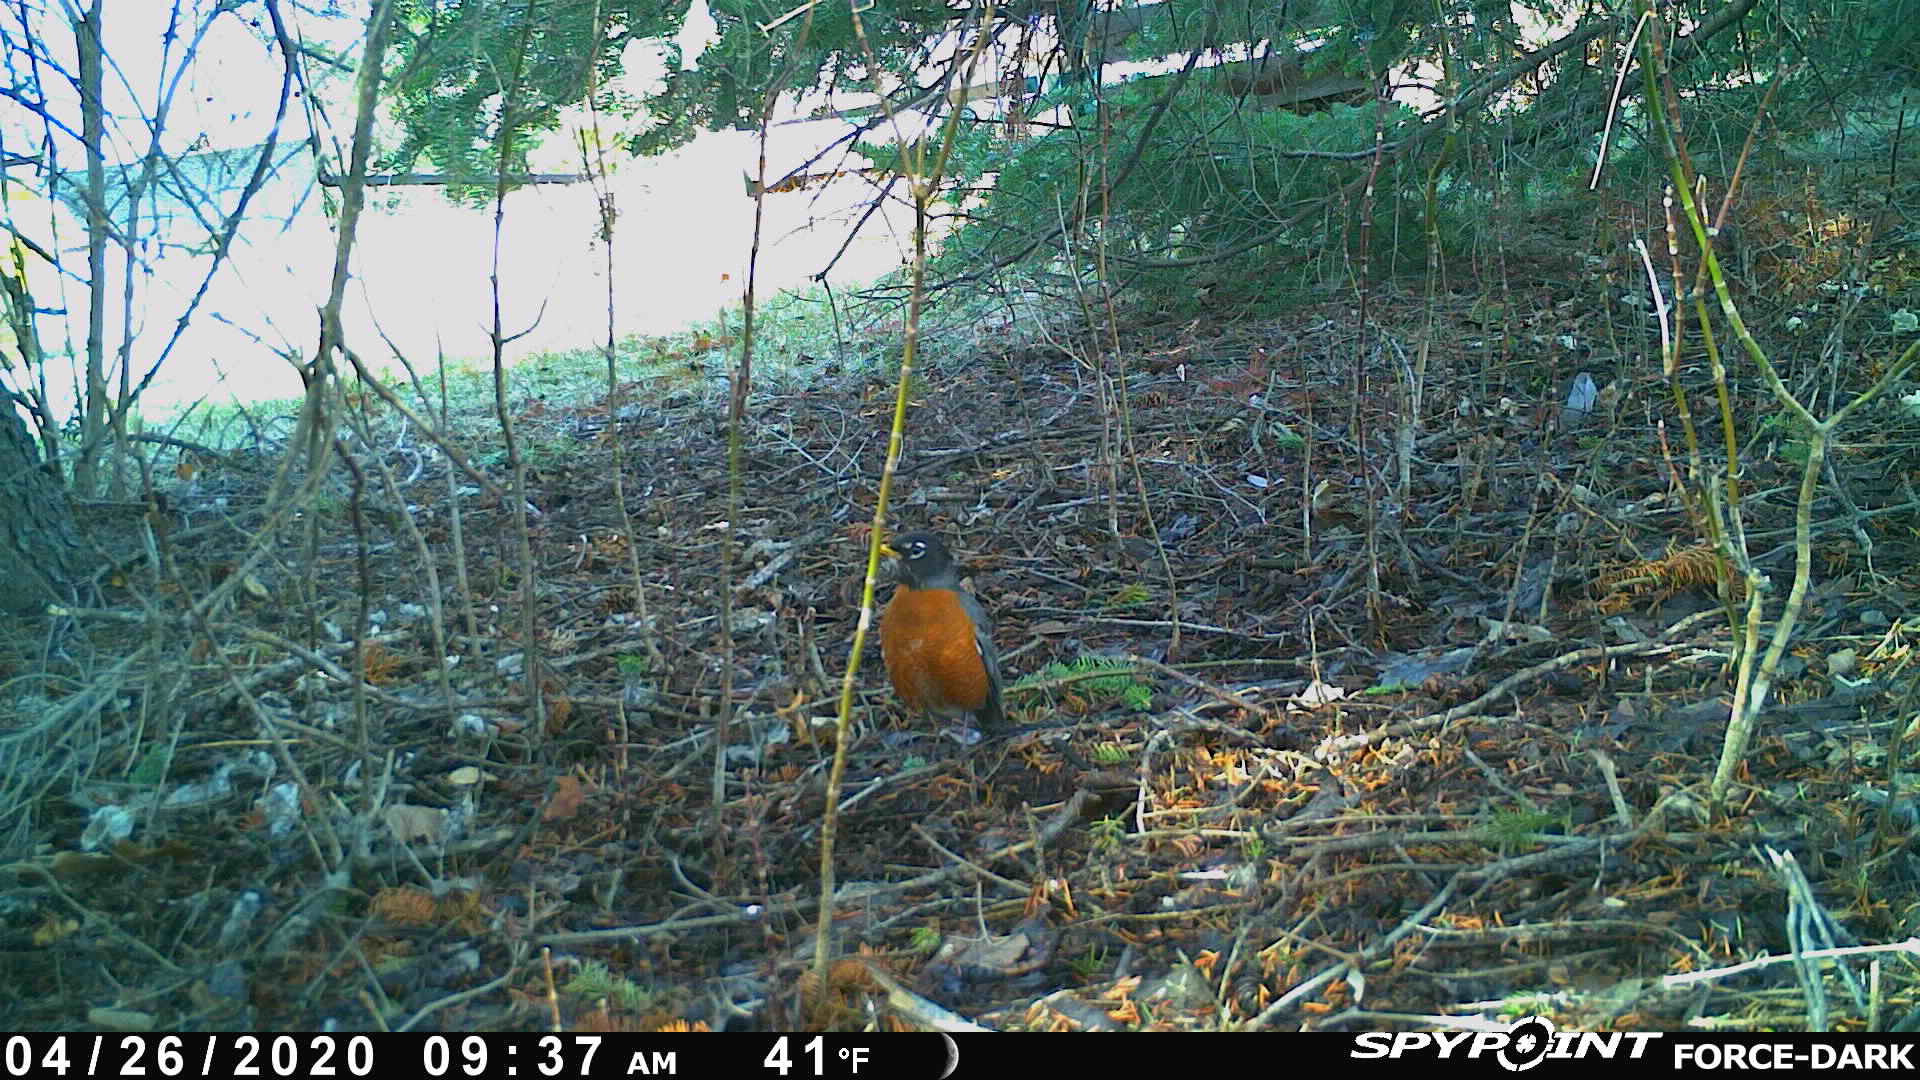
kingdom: Animalia
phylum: Chordata
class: Aves
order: Passeriformes
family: Turdidae
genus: Turdus
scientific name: Turdus migratorius
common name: American robin
